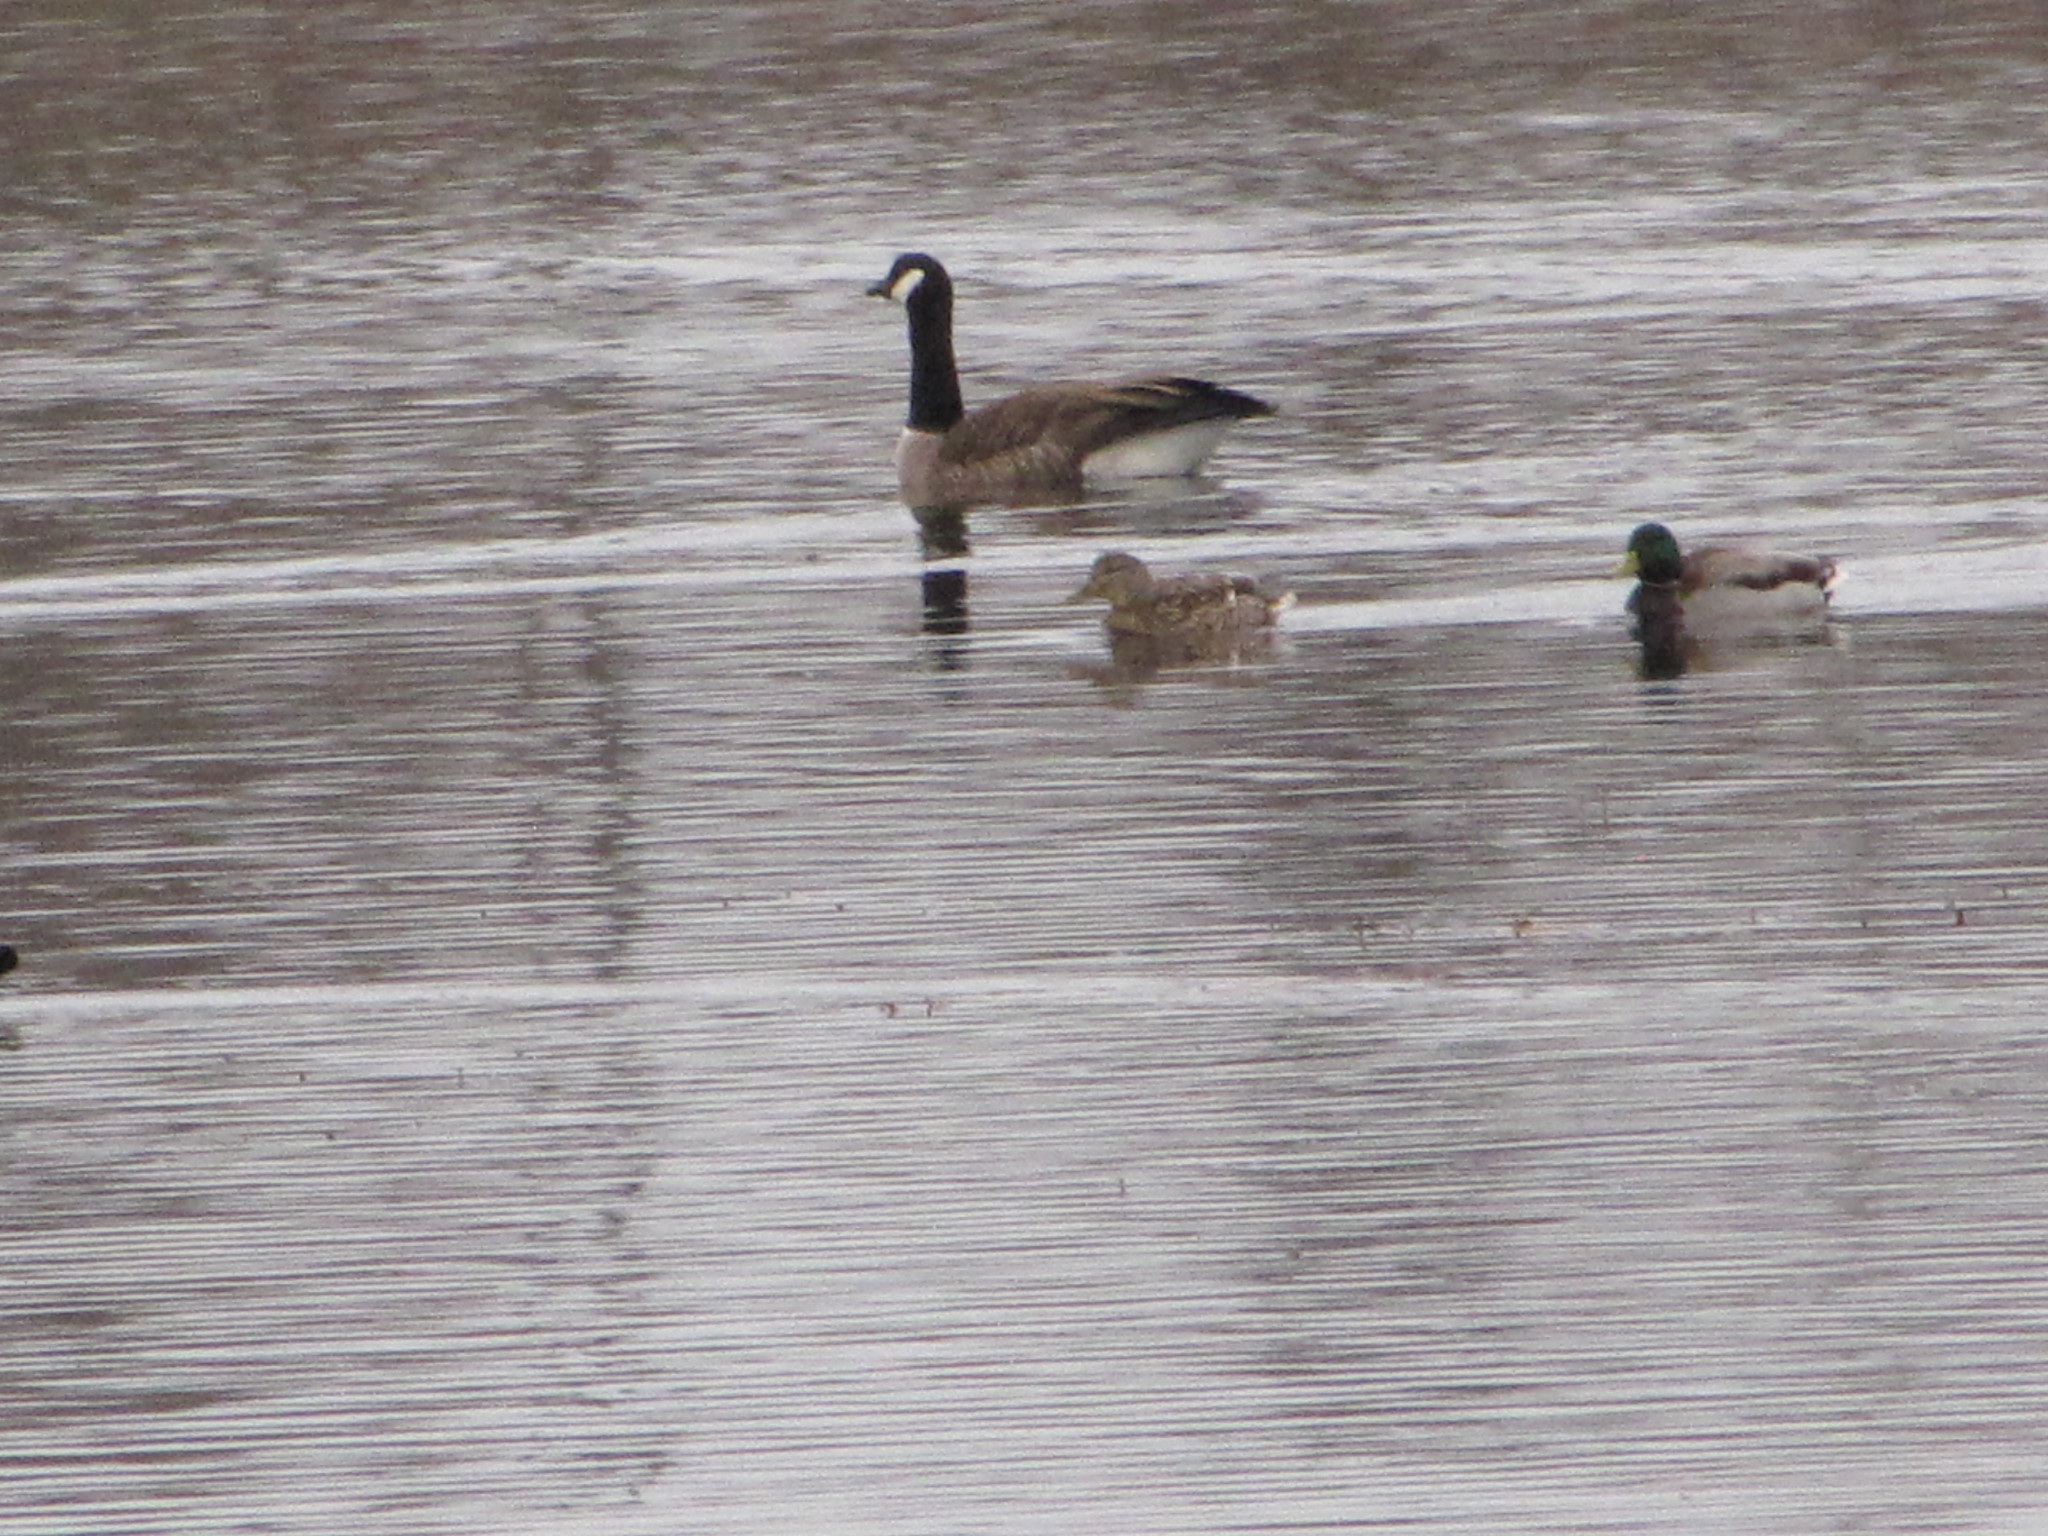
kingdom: Animalia
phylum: Chordata
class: Aves
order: Anseriformes
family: Anatidae
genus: Branta
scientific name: Branta canadensis
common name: Canada goose
